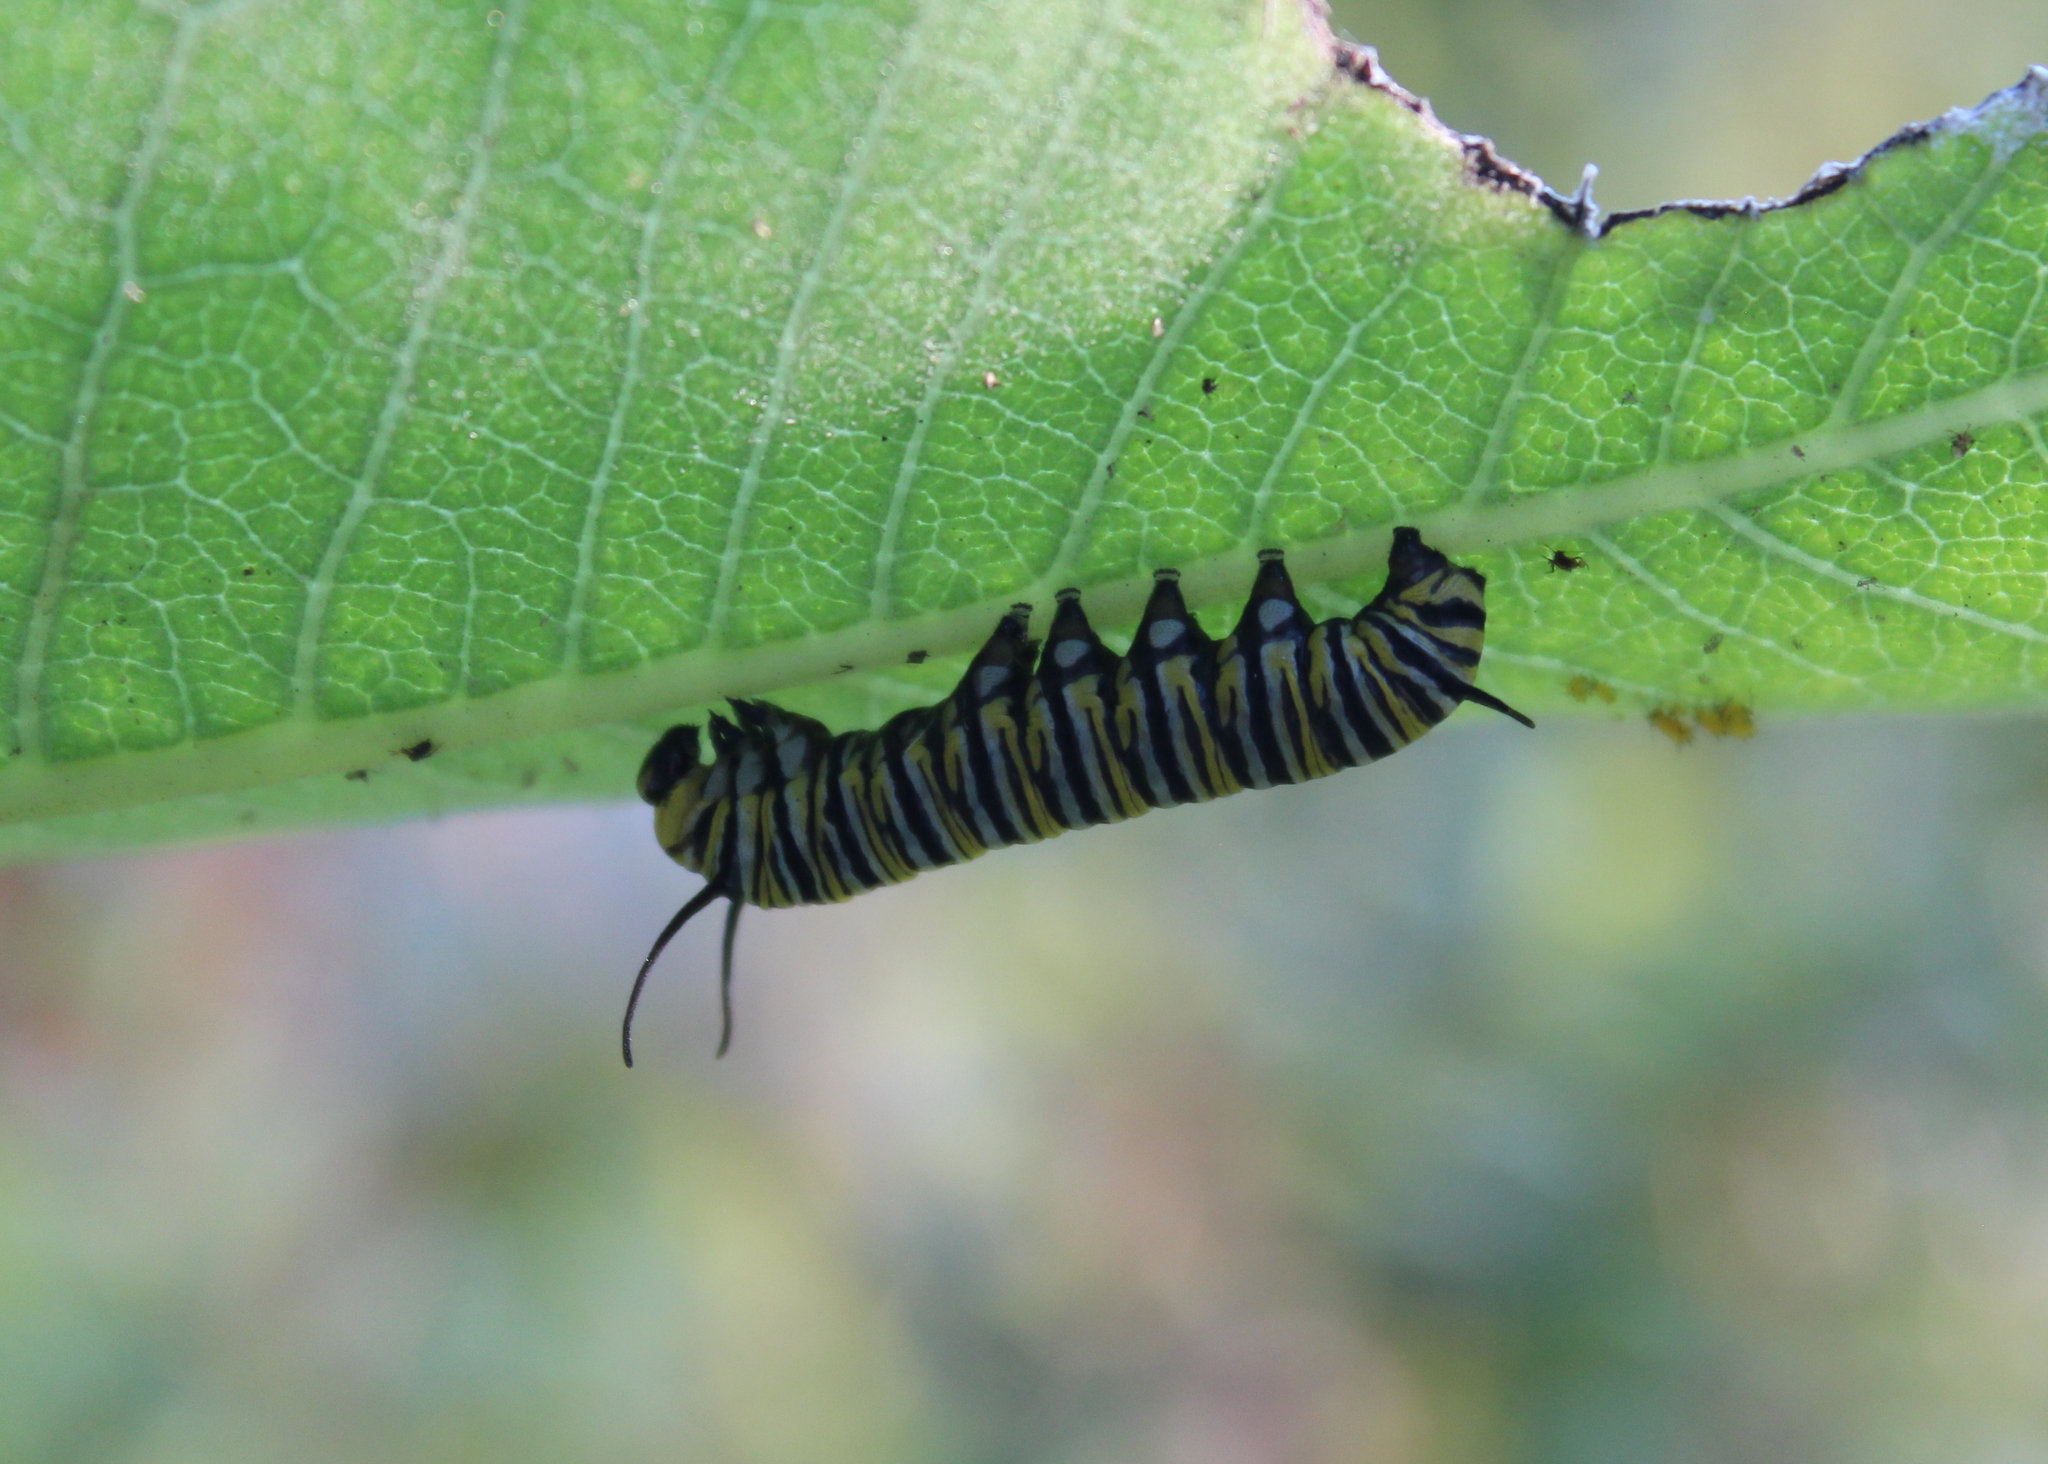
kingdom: Animalia
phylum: Arthropoda
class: Insecta
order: Lepidoptera
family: Nymphalidae
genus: Danaus
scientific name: Danaus plexippus
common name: Monarch
